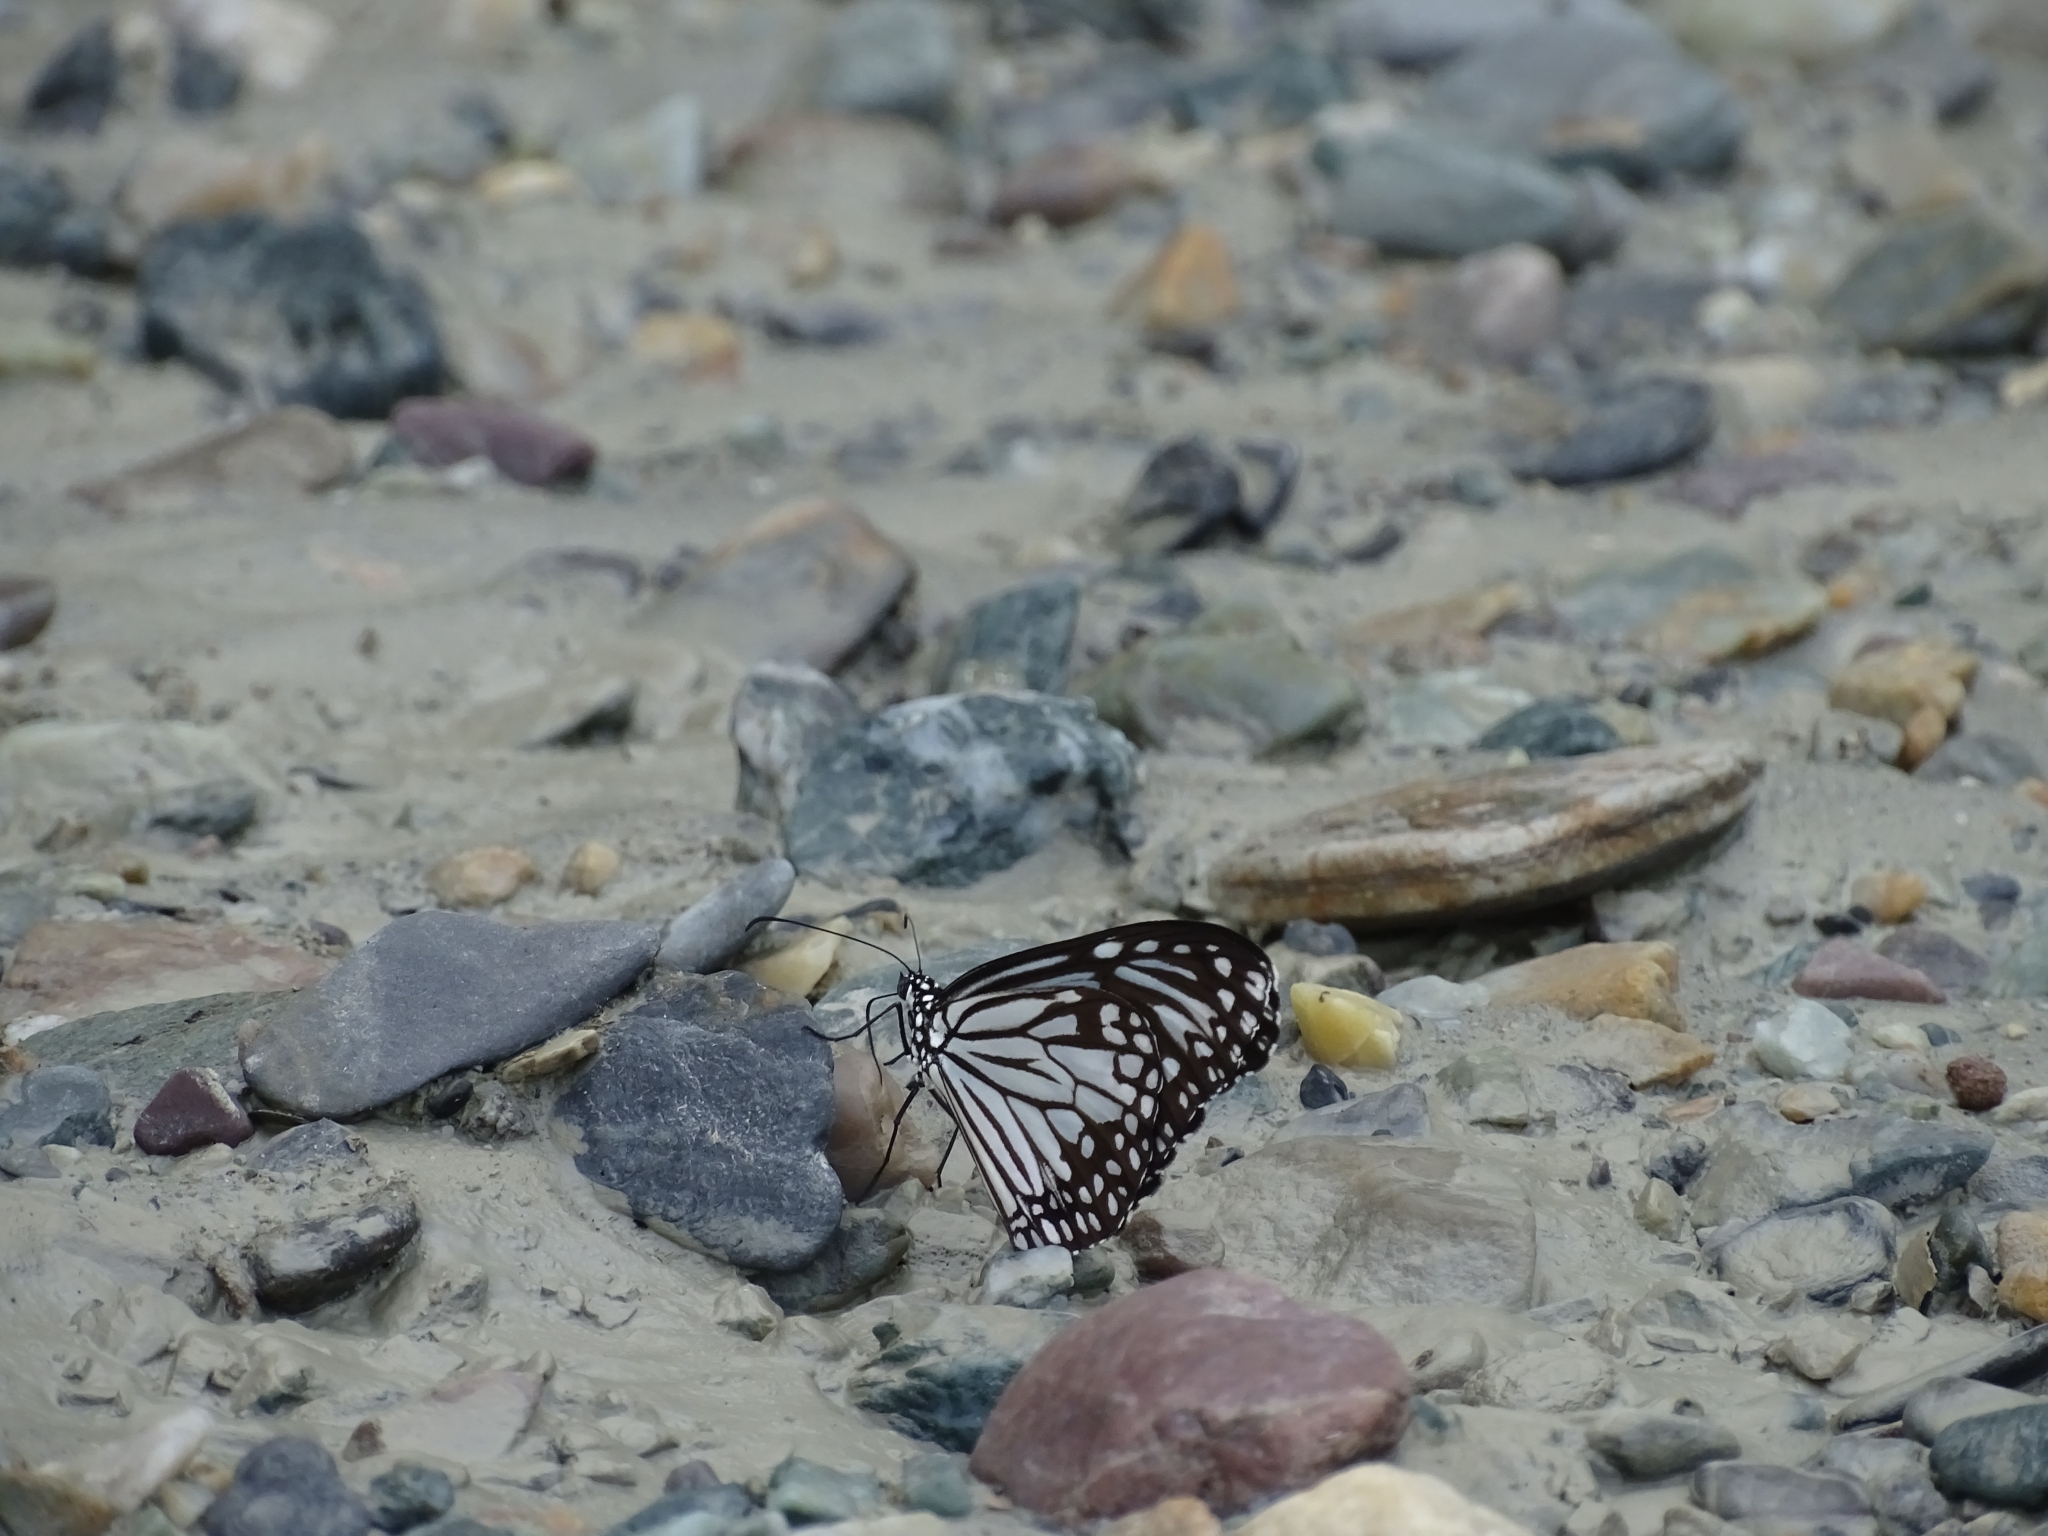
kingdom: Animalia
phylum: Arthropoda
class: Insecta
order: Lepidoptera
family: Nymphalidae
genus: Parantica
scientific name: Parantica aglea
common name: Glassy tiger
